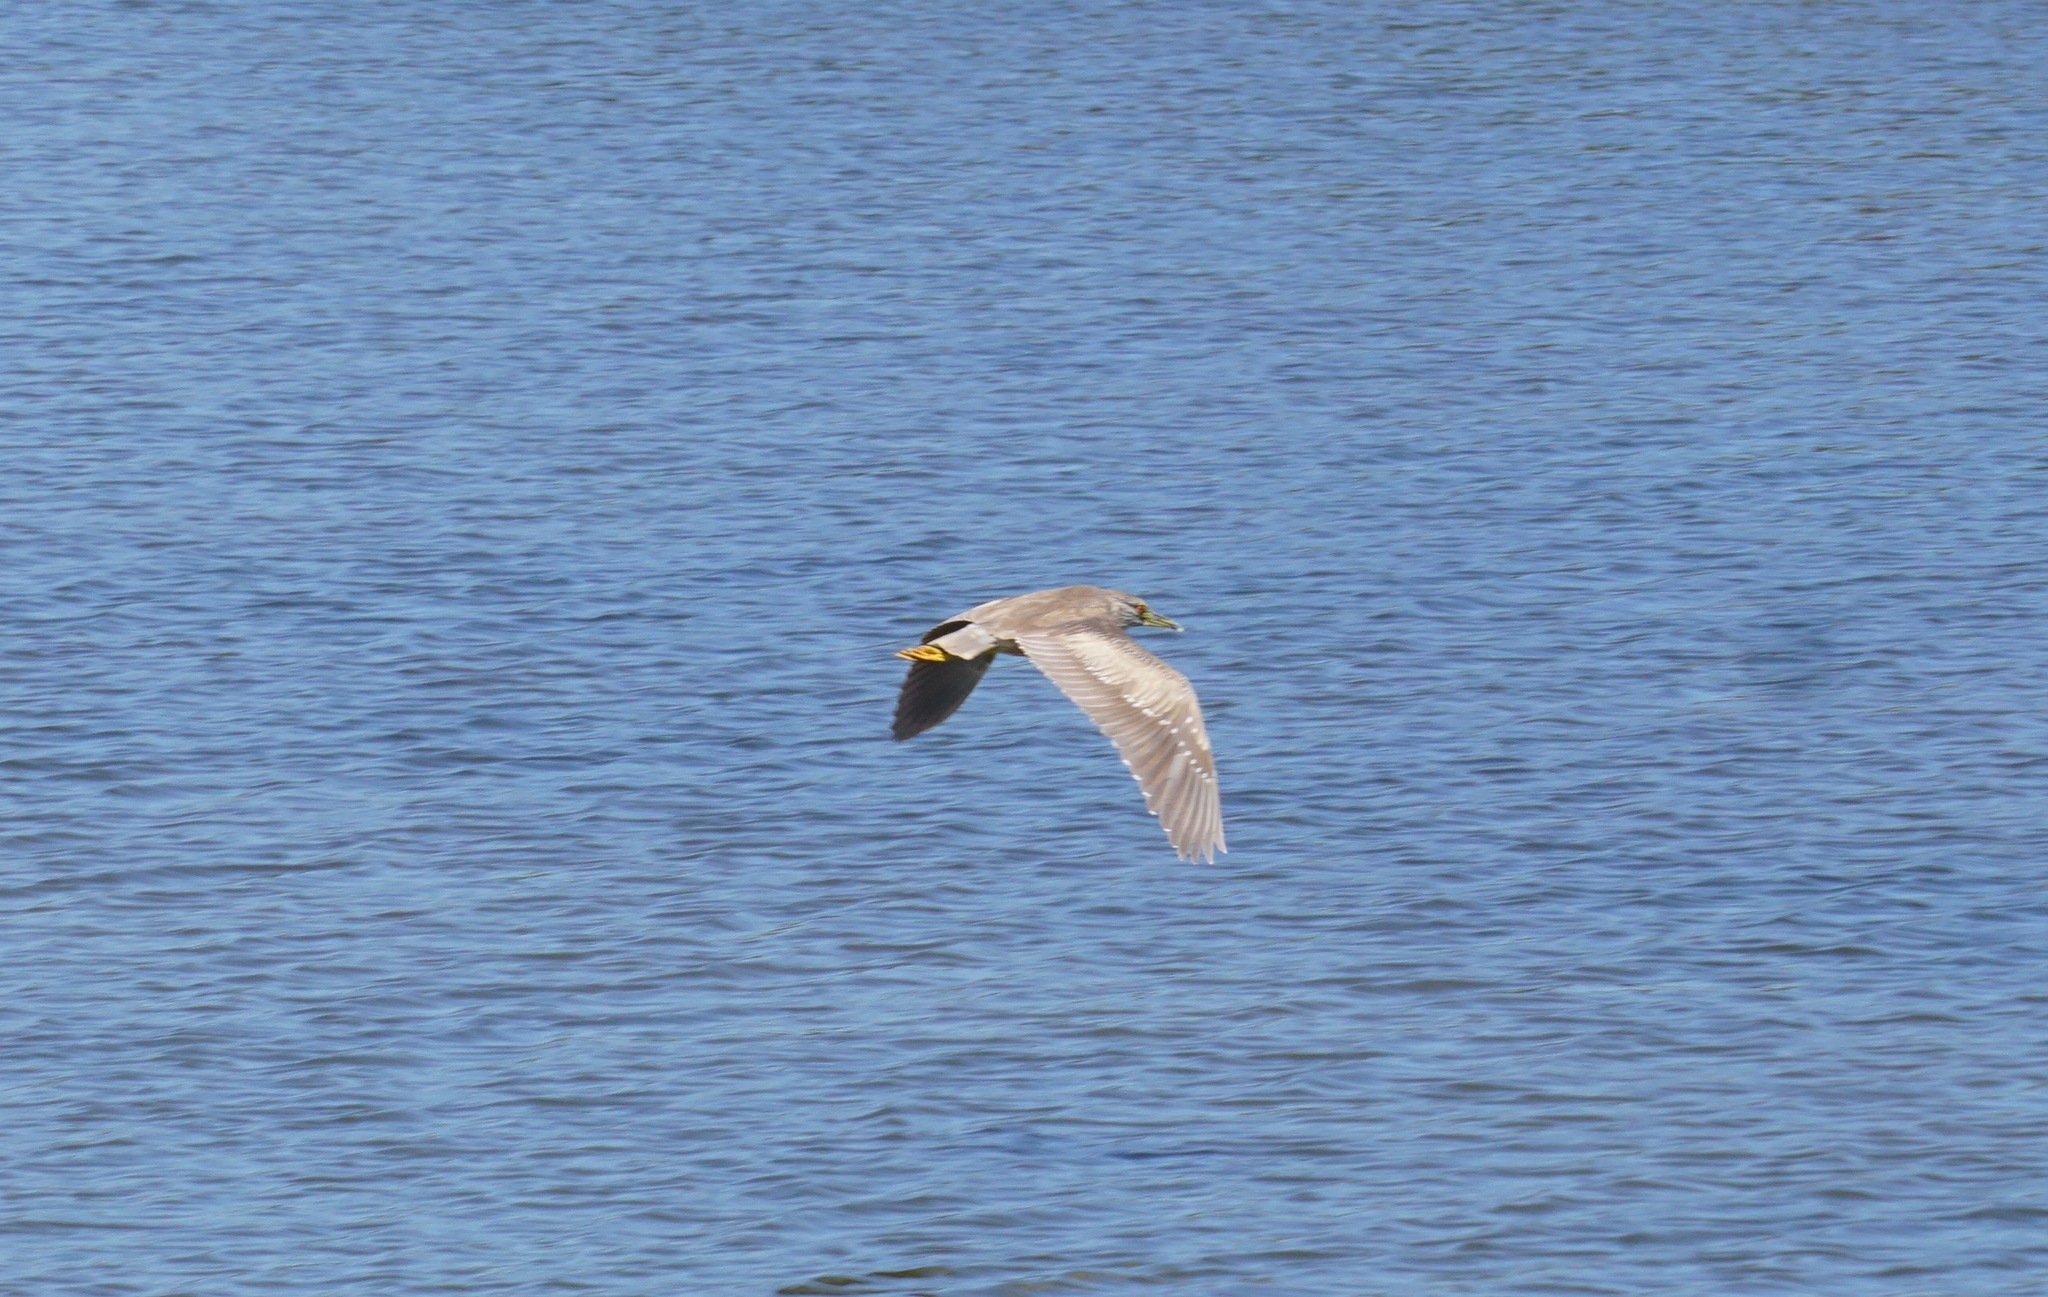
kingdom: Animalia
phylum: Chordata
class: Aves
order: Pelecaniformes
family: Ardeidae
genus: Nycticorax
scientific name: Nycticorax nycticorax
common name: Black-crowned night heron
